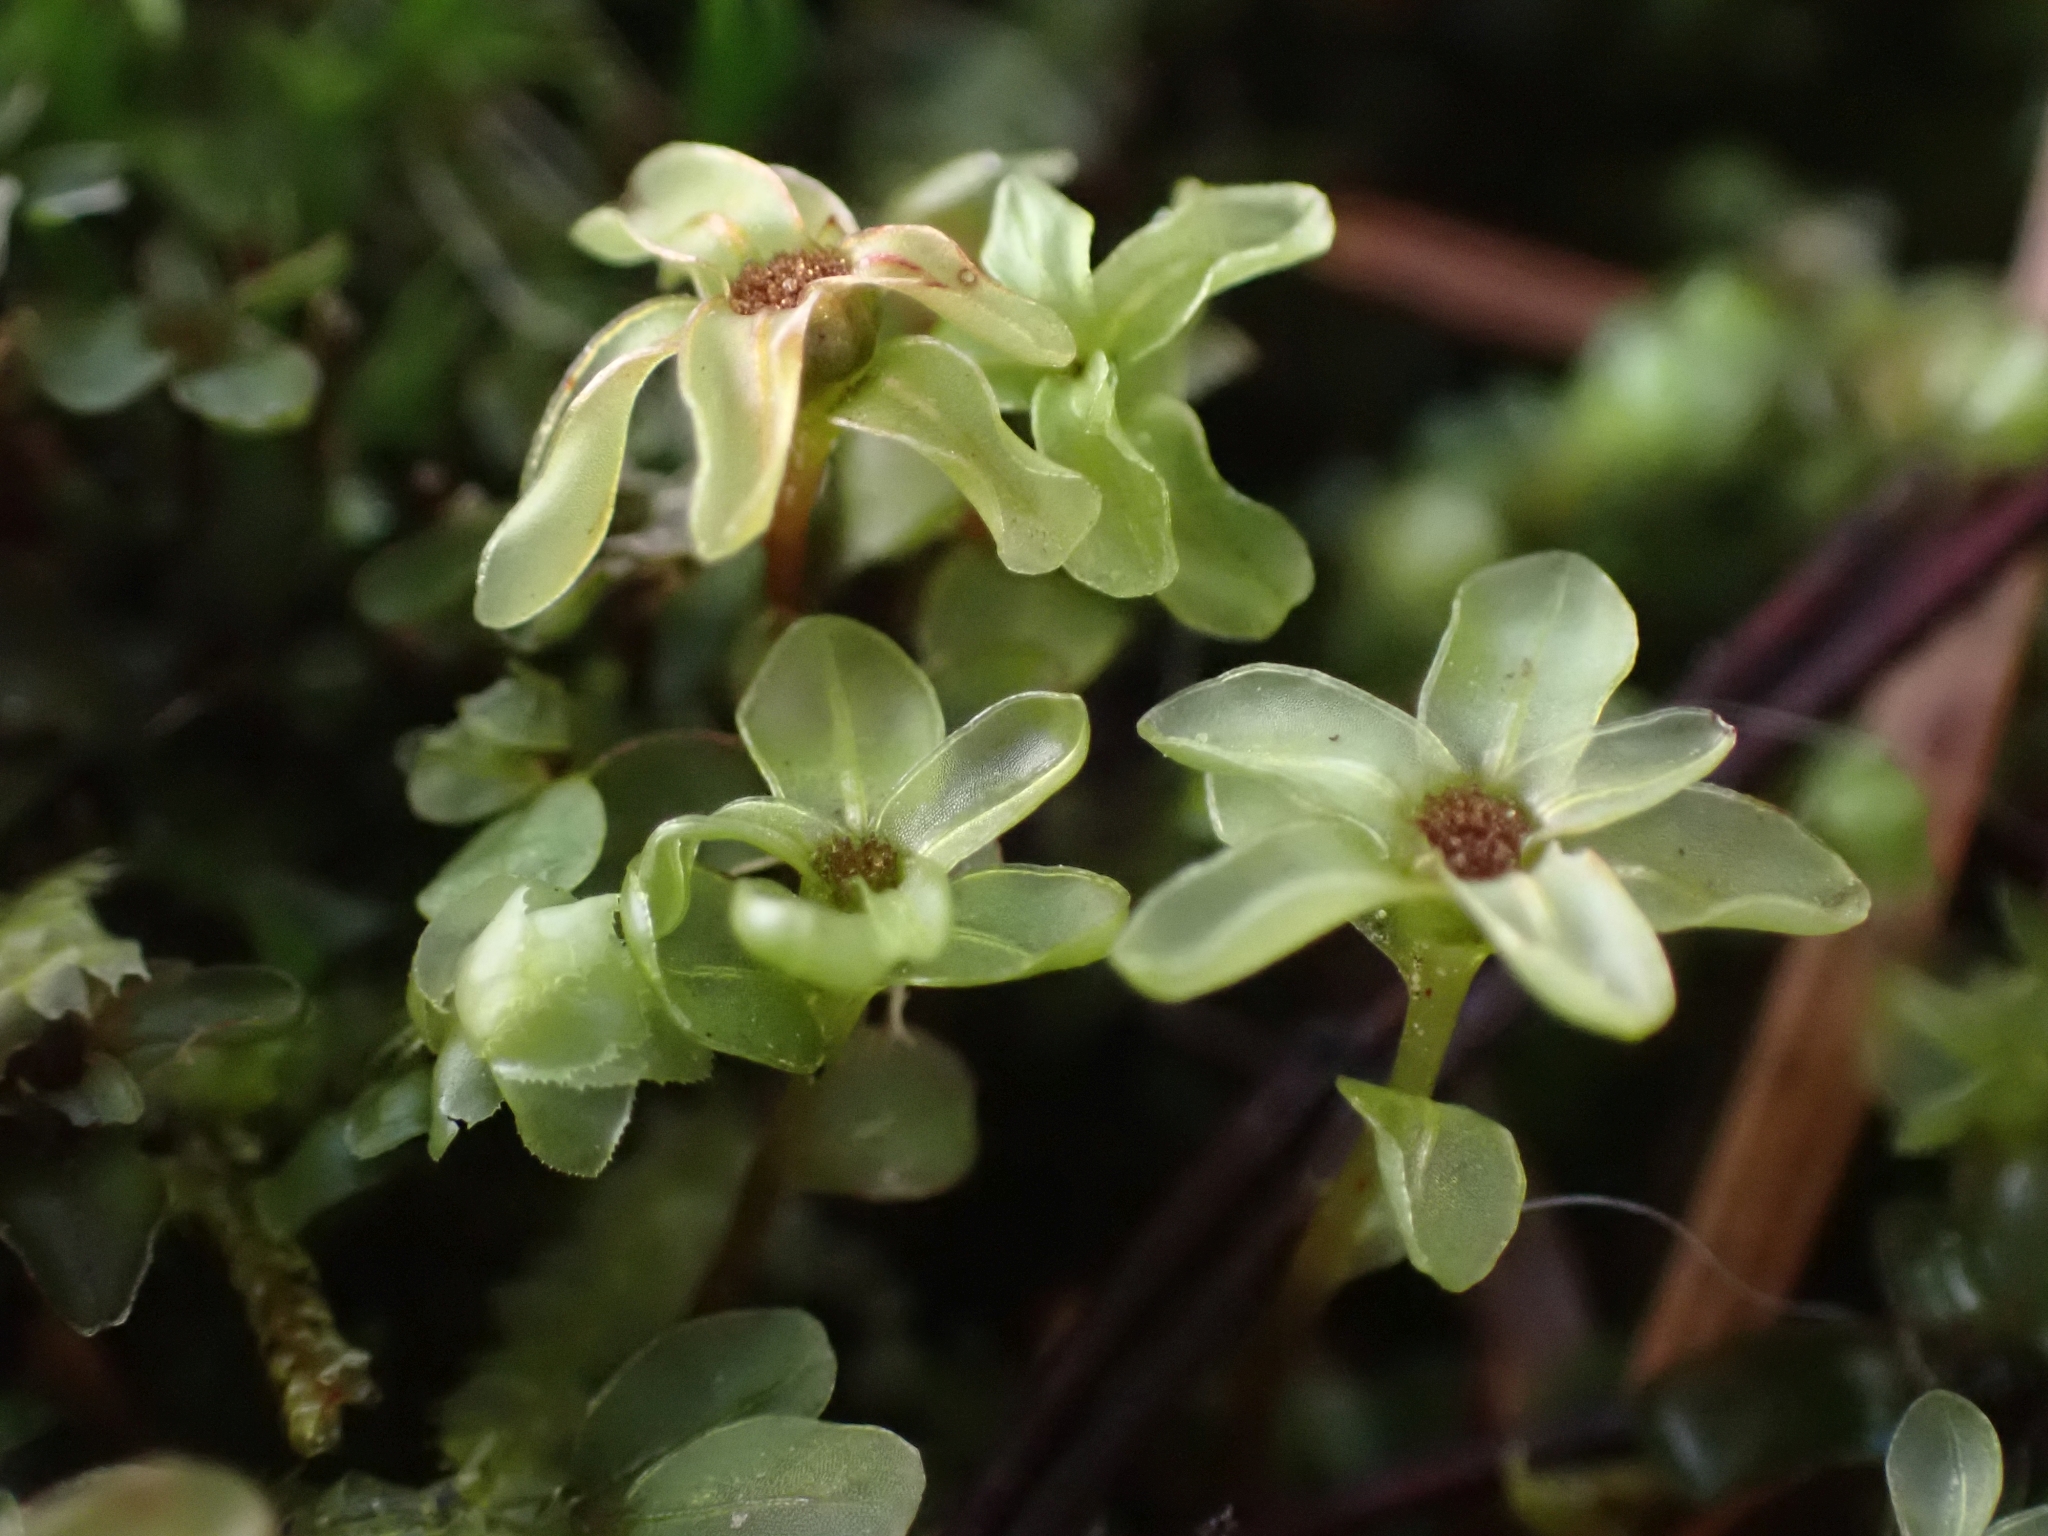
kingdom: Plantae
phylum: Bryophyta
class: Bryopsida
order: Bryales
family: Mniaceae
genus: Rhizomnium
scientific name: Rhizomnium glabrescens
